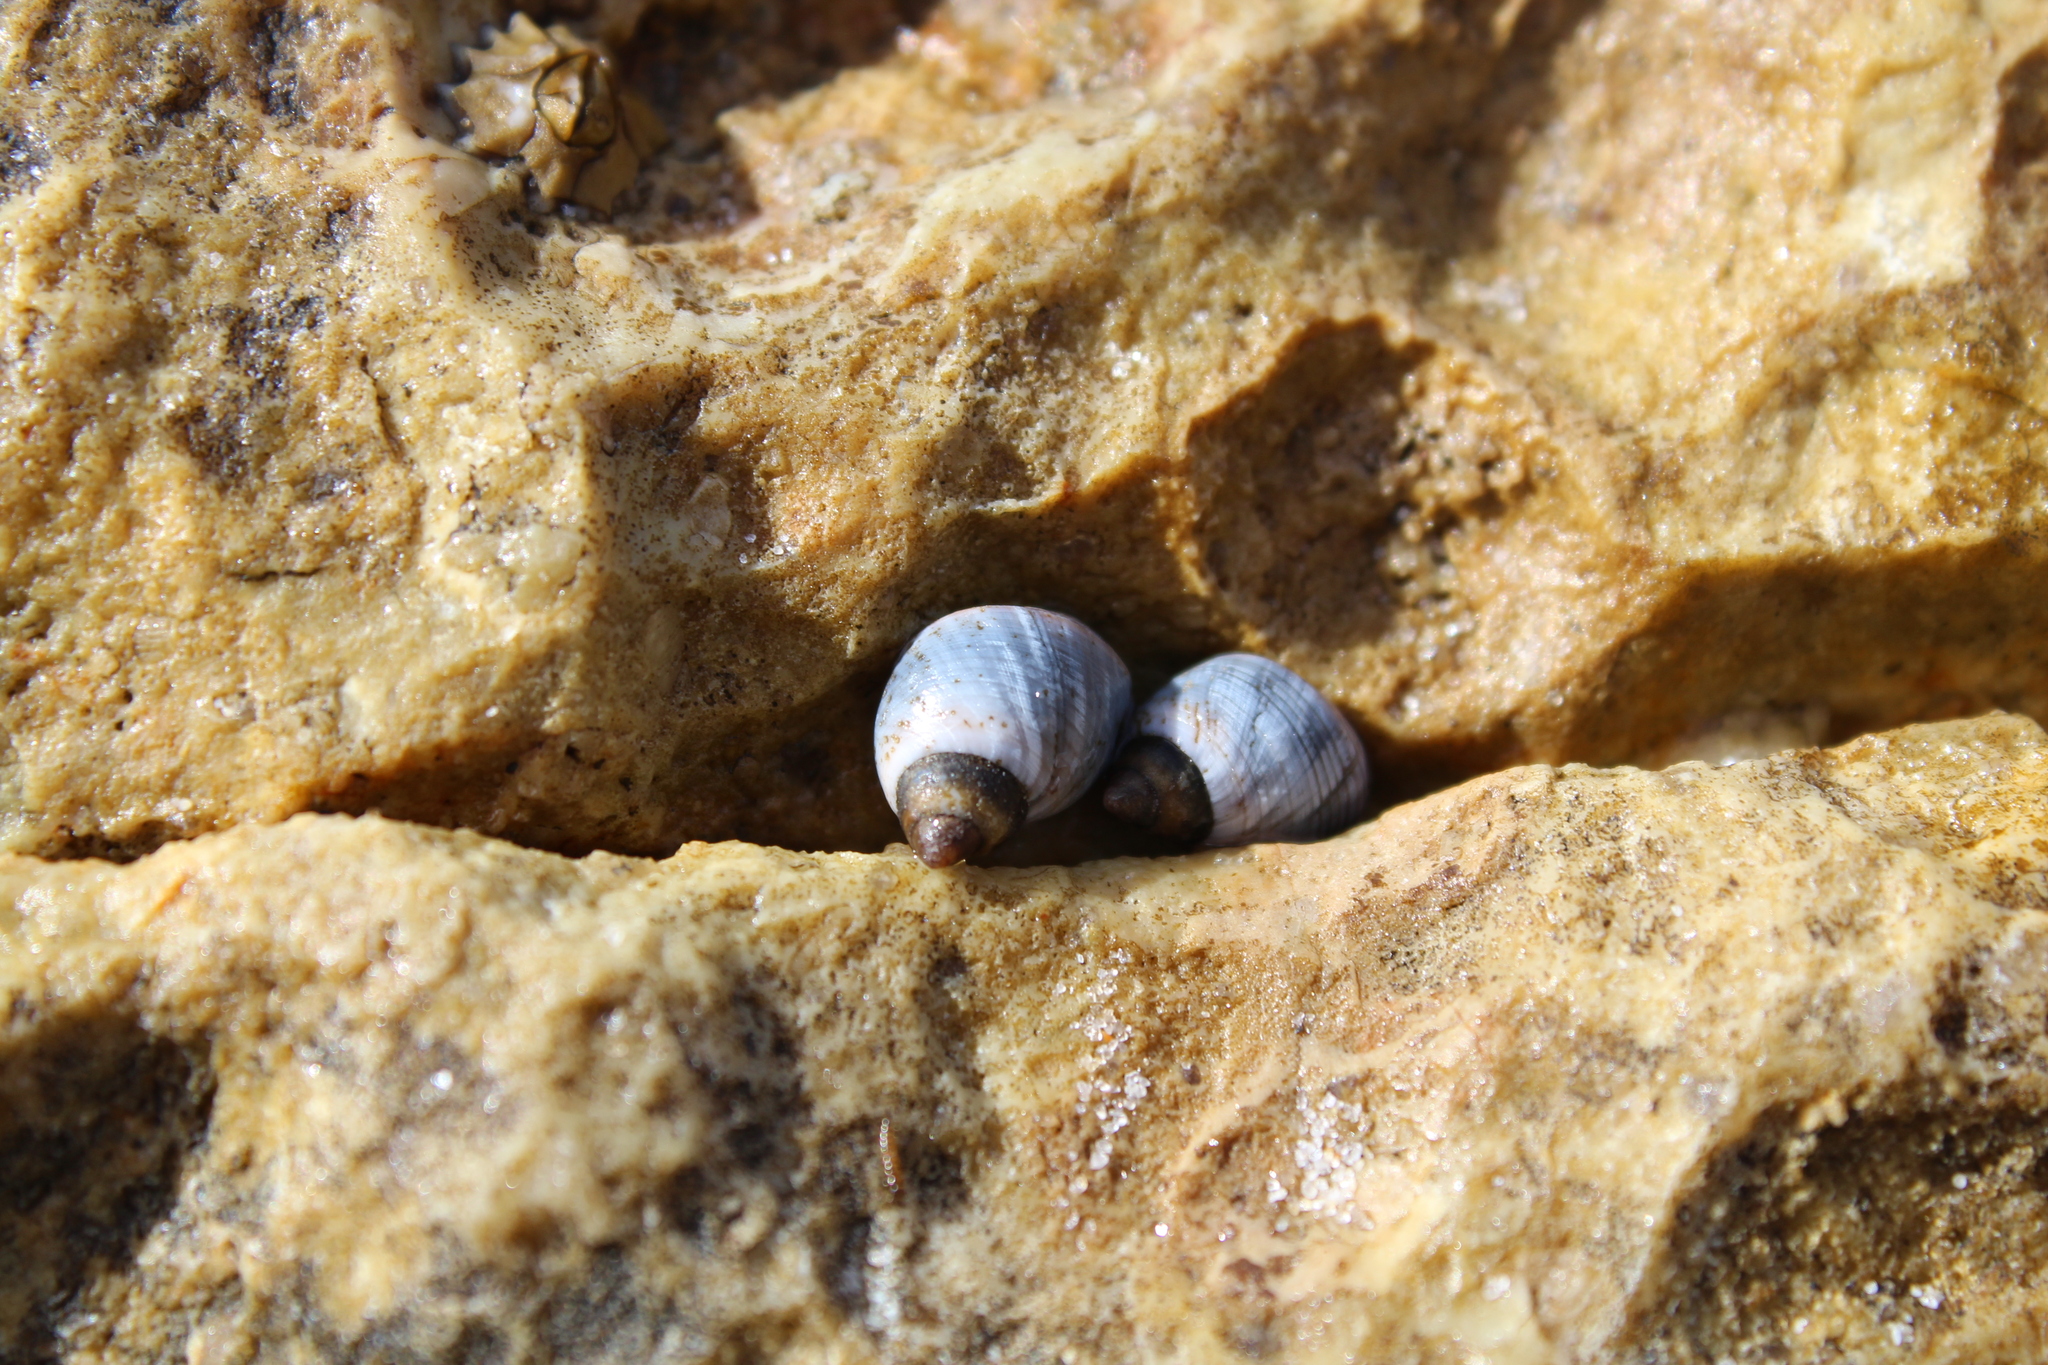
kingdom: Animalia
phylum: Mollusca
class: Gastropoda
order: Littorinimorpha
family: Littorinidae
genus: Austrolittorina
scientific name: Austrolittorina unifasciata
